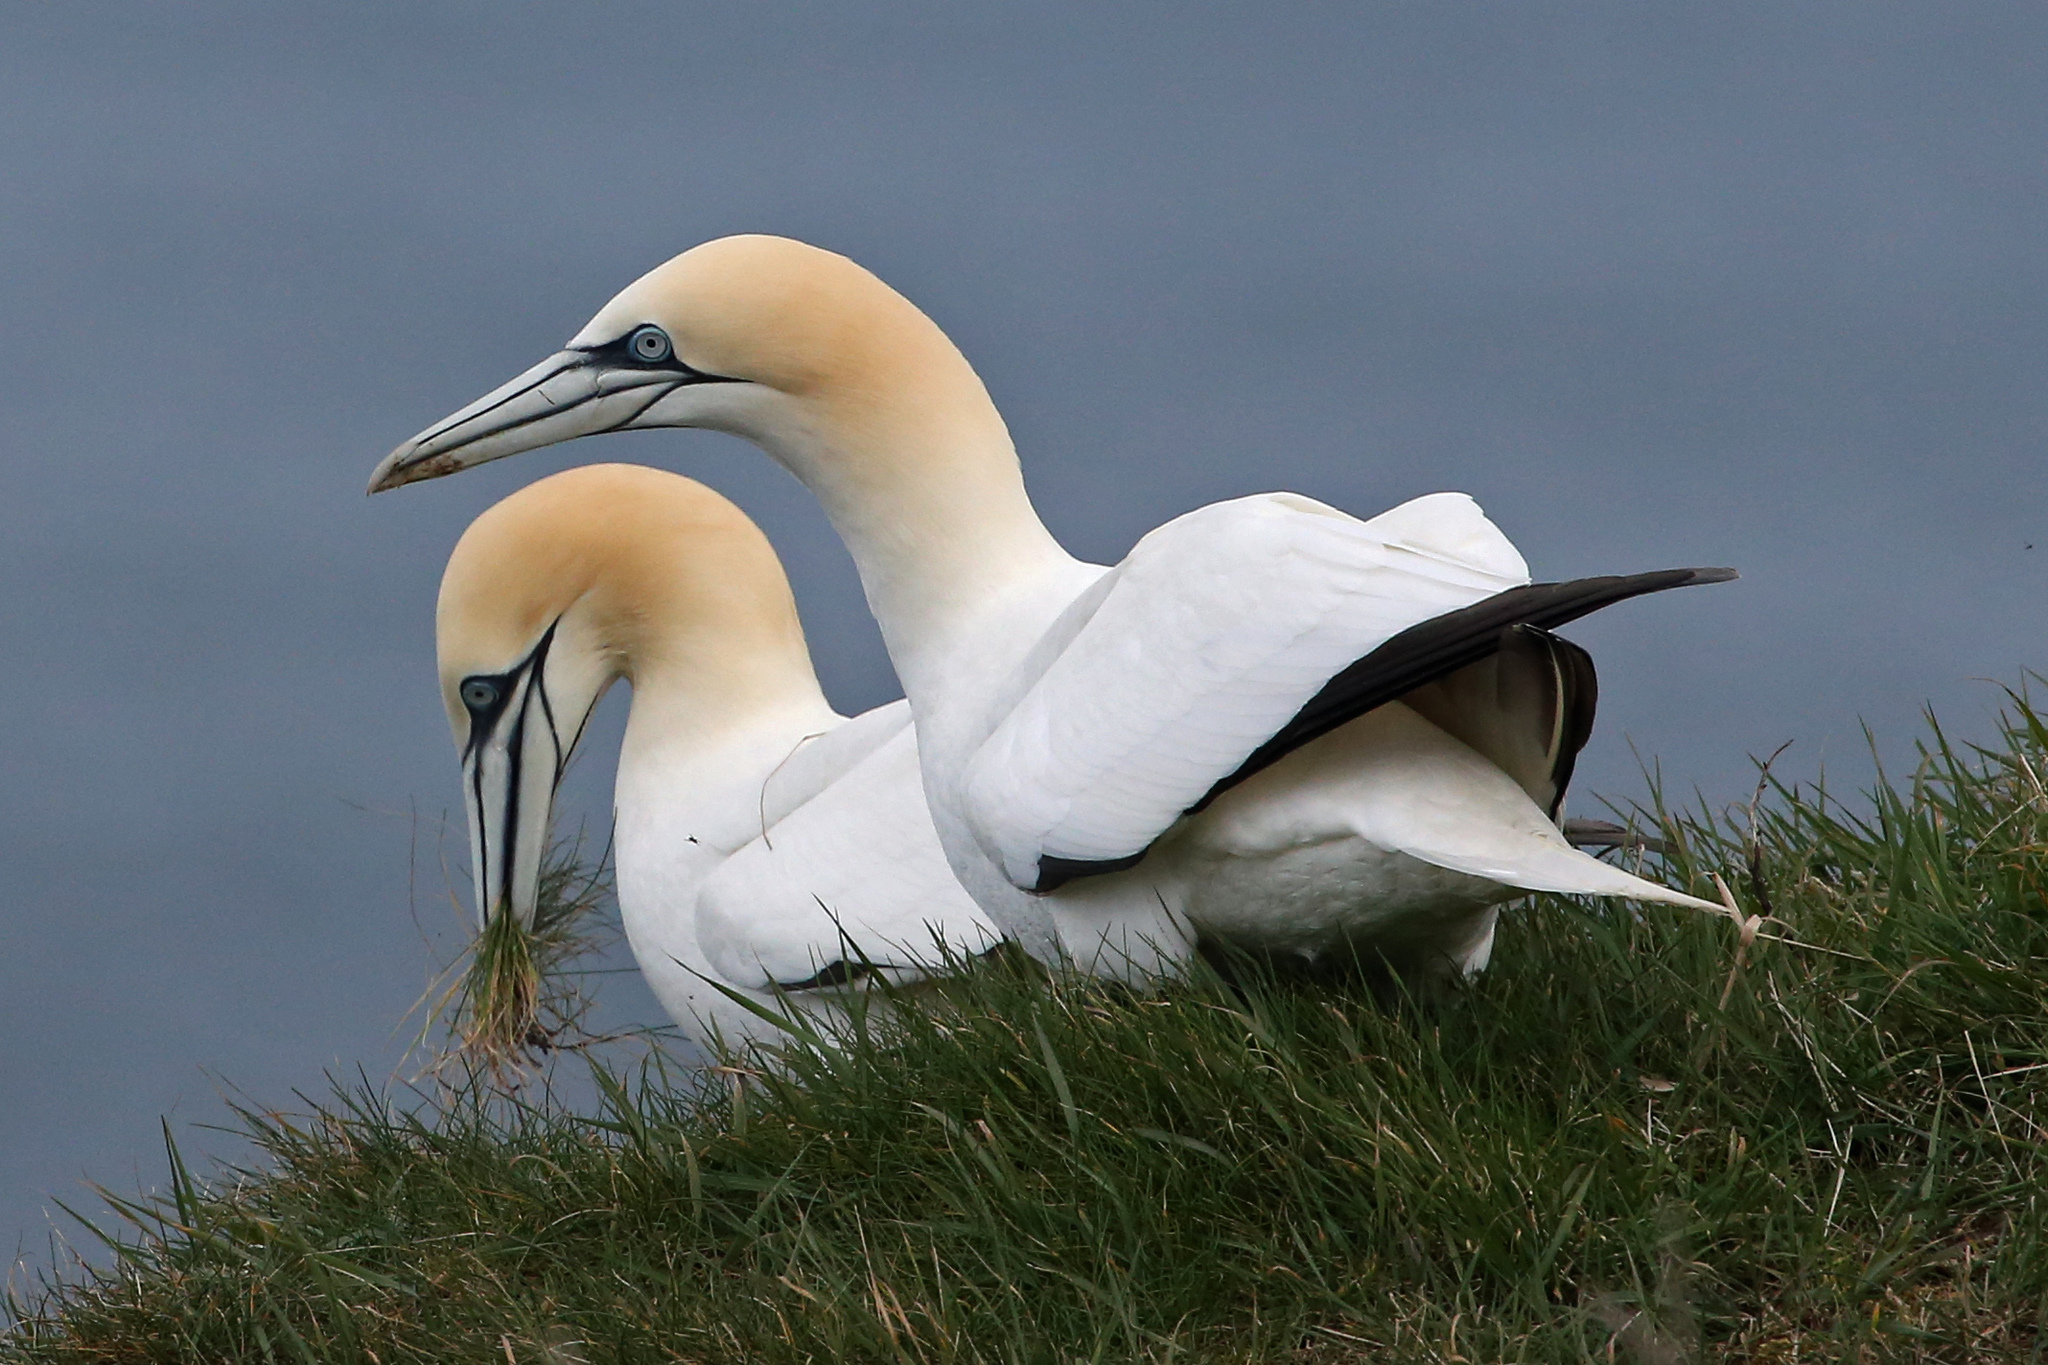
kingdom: Animalia
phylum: Chordata
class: Aves
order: Suliformes
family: Sulidae
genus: Morus
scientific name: Morus bassanus
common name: Northern gannet
